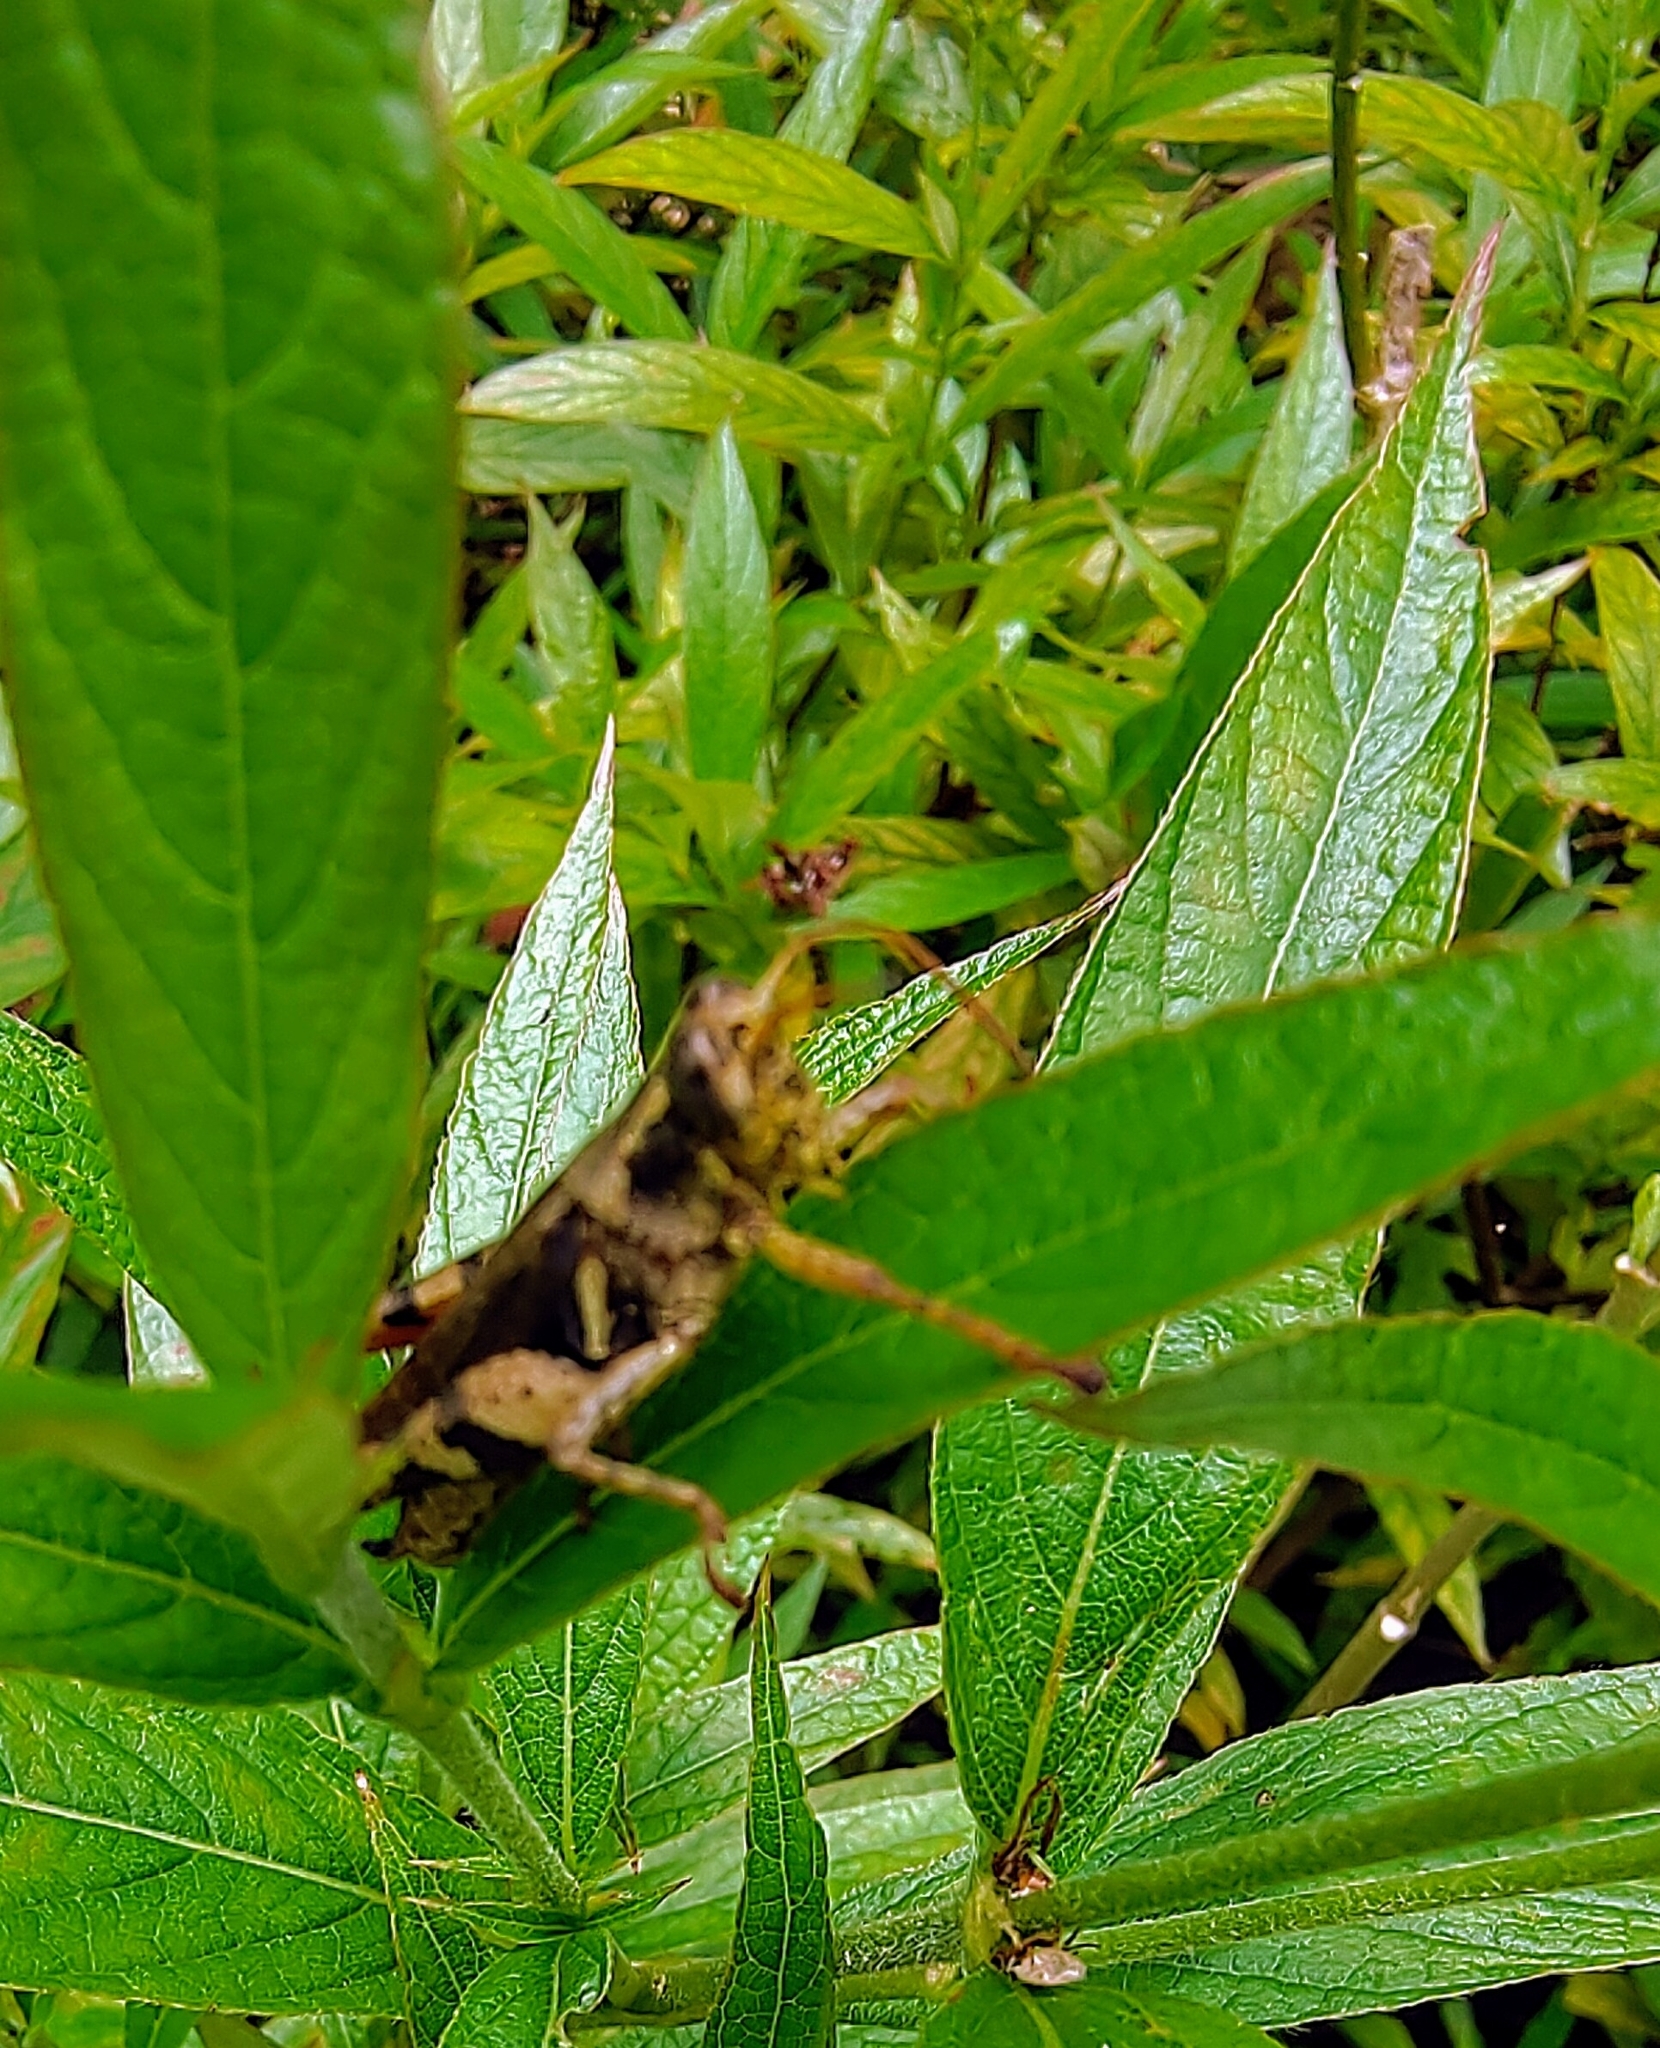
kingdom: Animalia
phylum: Arthropoda
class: Insecta
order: Orthoptera
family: Acrididae
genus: Xenocatantops
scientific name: Xenocatantops humile
